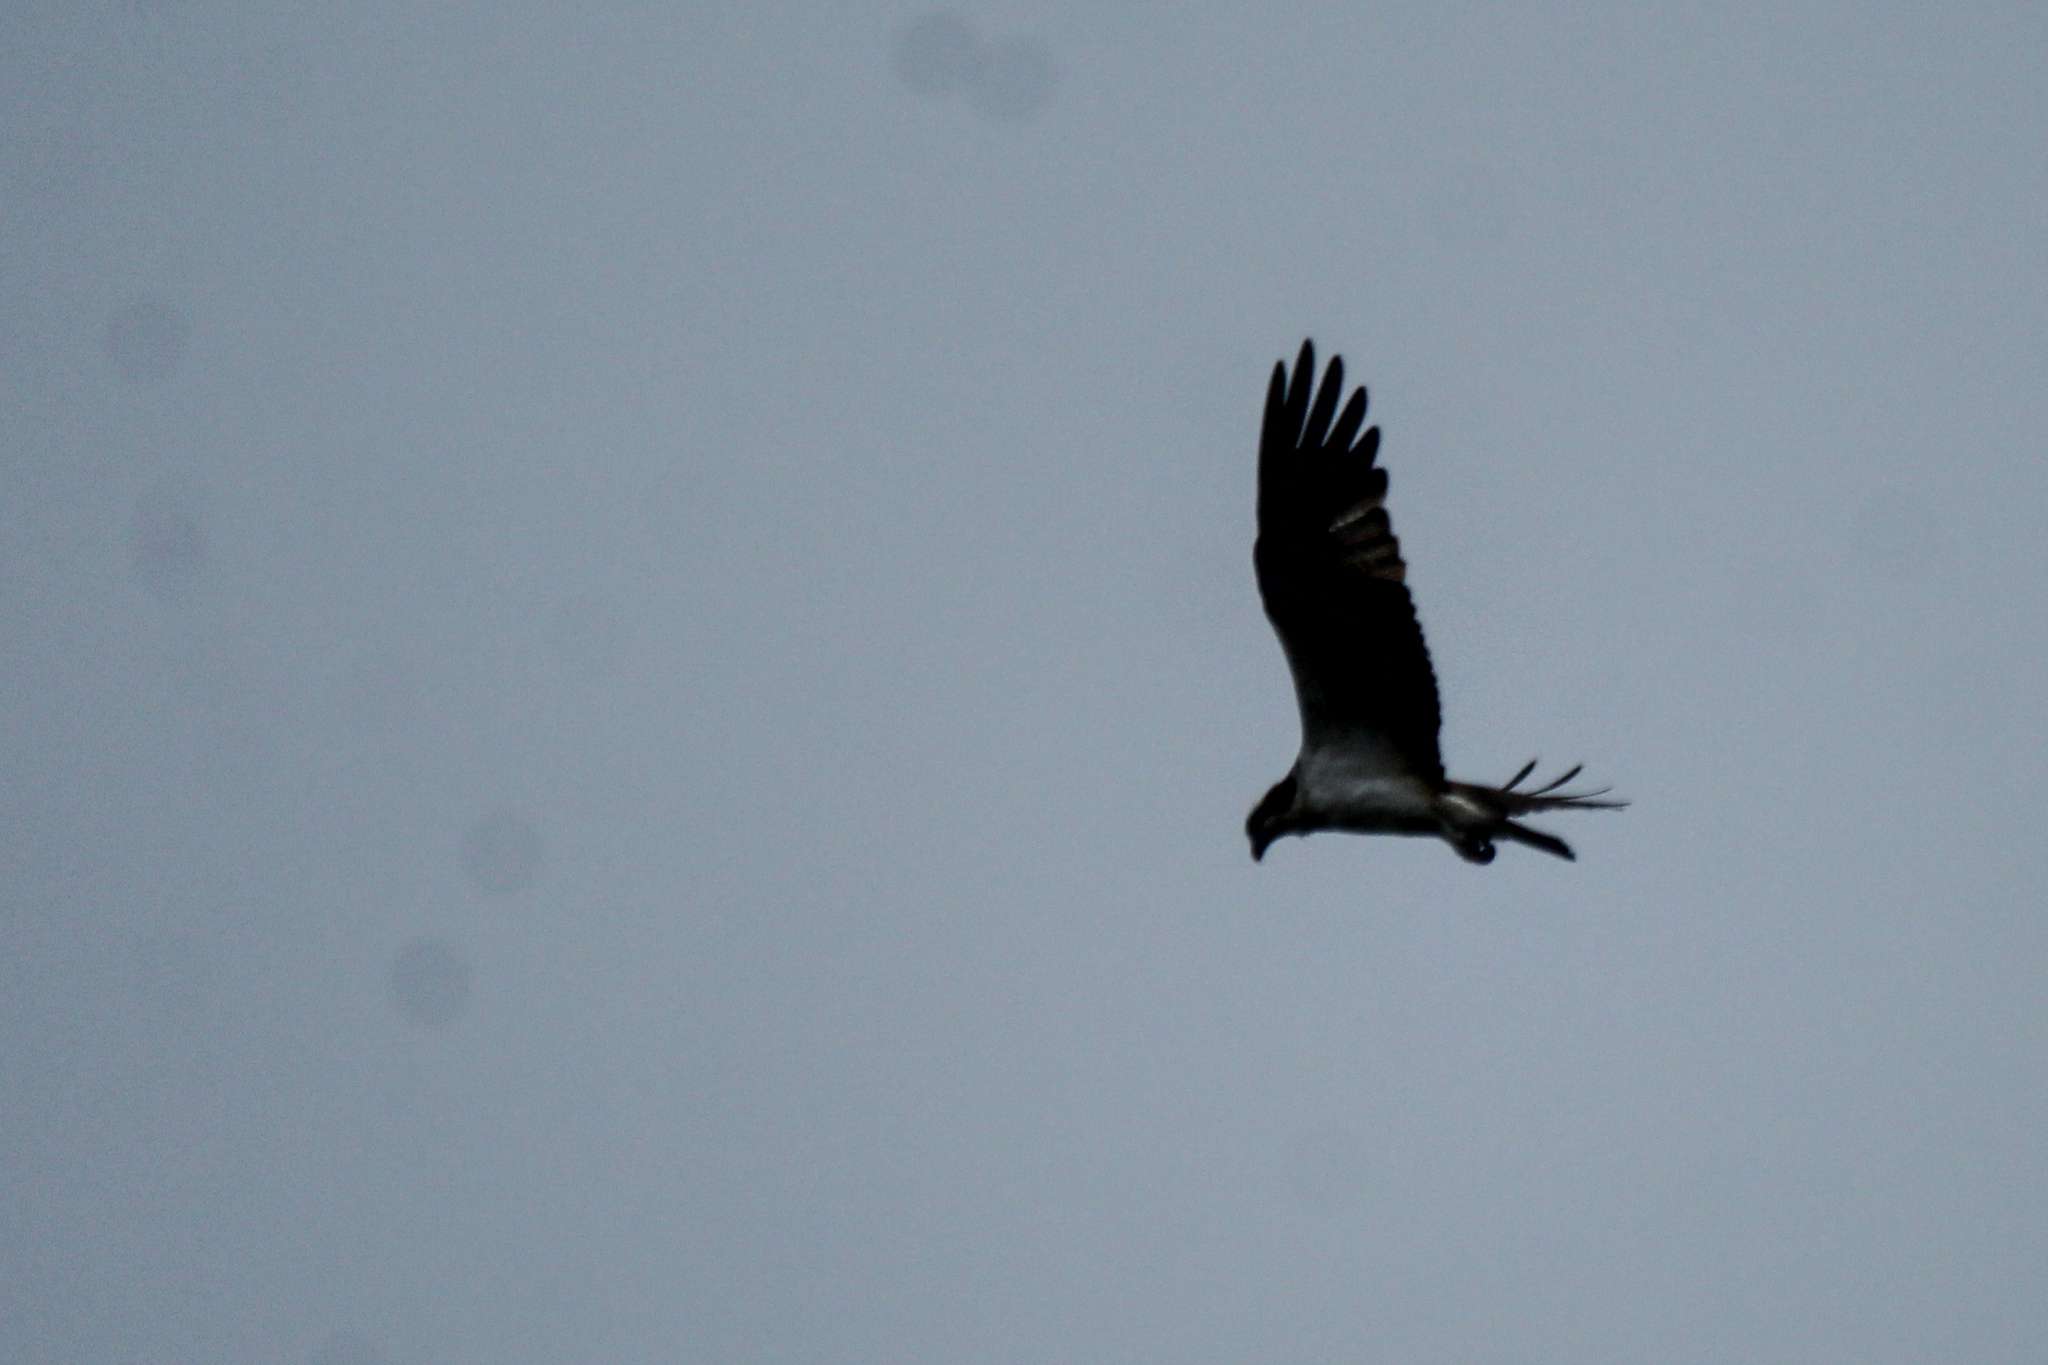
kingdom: Animalia
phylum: Chordata
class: Aves
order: Accipitriformes
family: Pandionidae
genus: Pandion
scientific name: Pandion haliaetus
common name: Osprey
